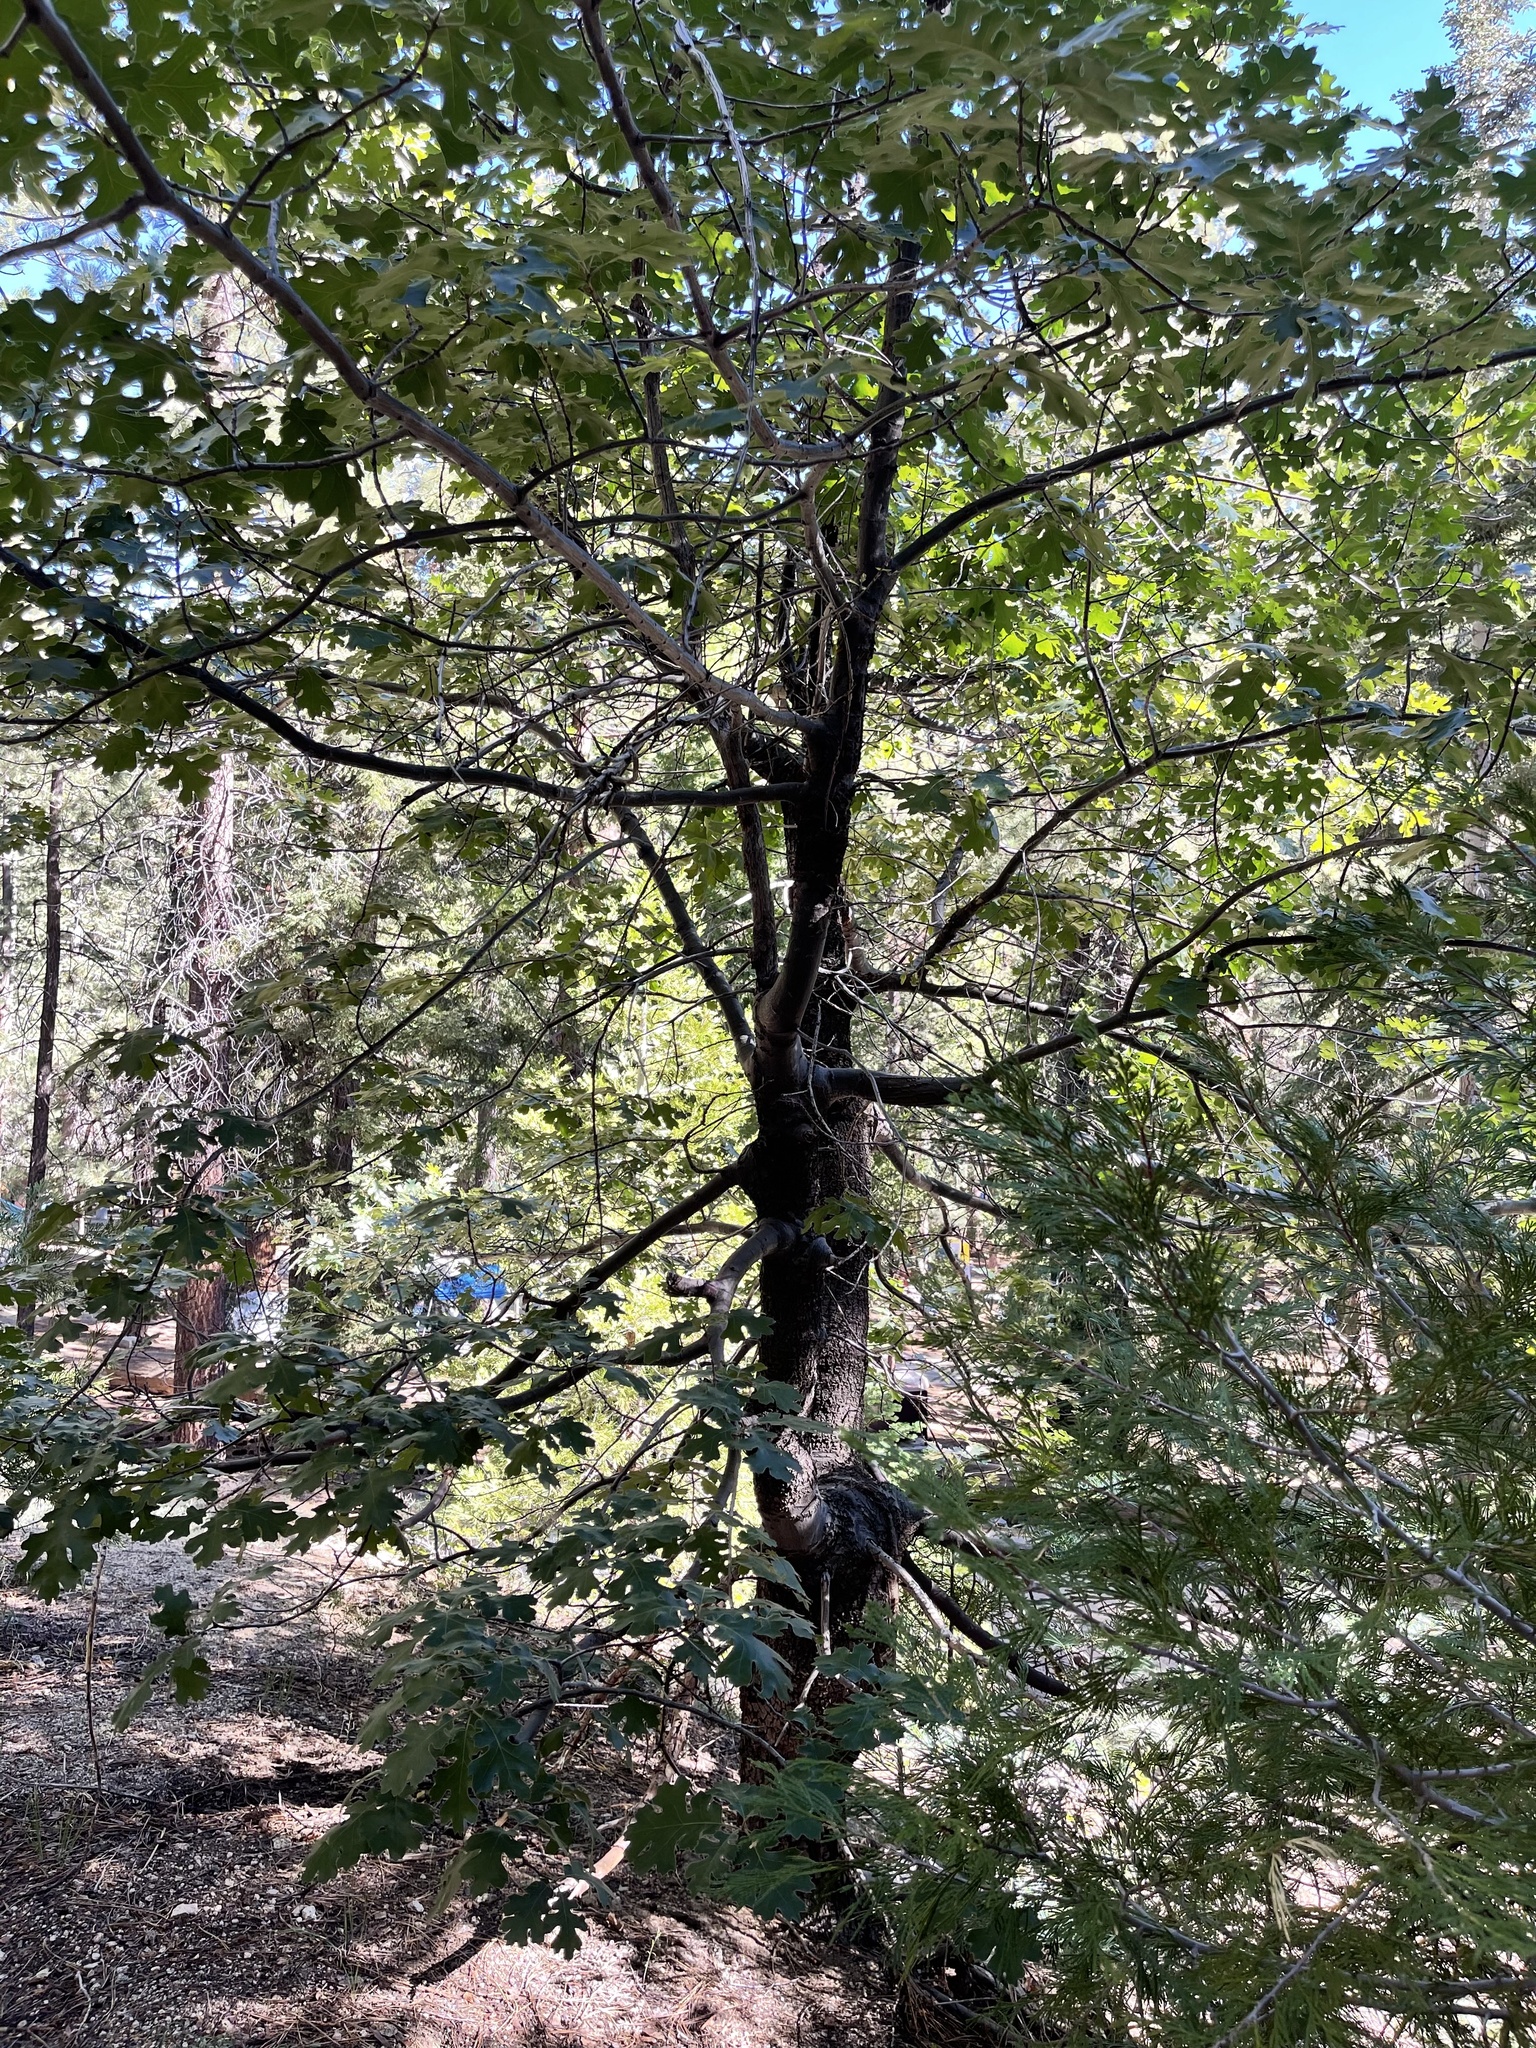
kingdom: Plantae
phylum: Tracheophyta
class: Magnoliopsida
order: Fagales
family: Fagaceae
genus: Quercus
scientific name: Quercus kelloggii
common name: California black oak
